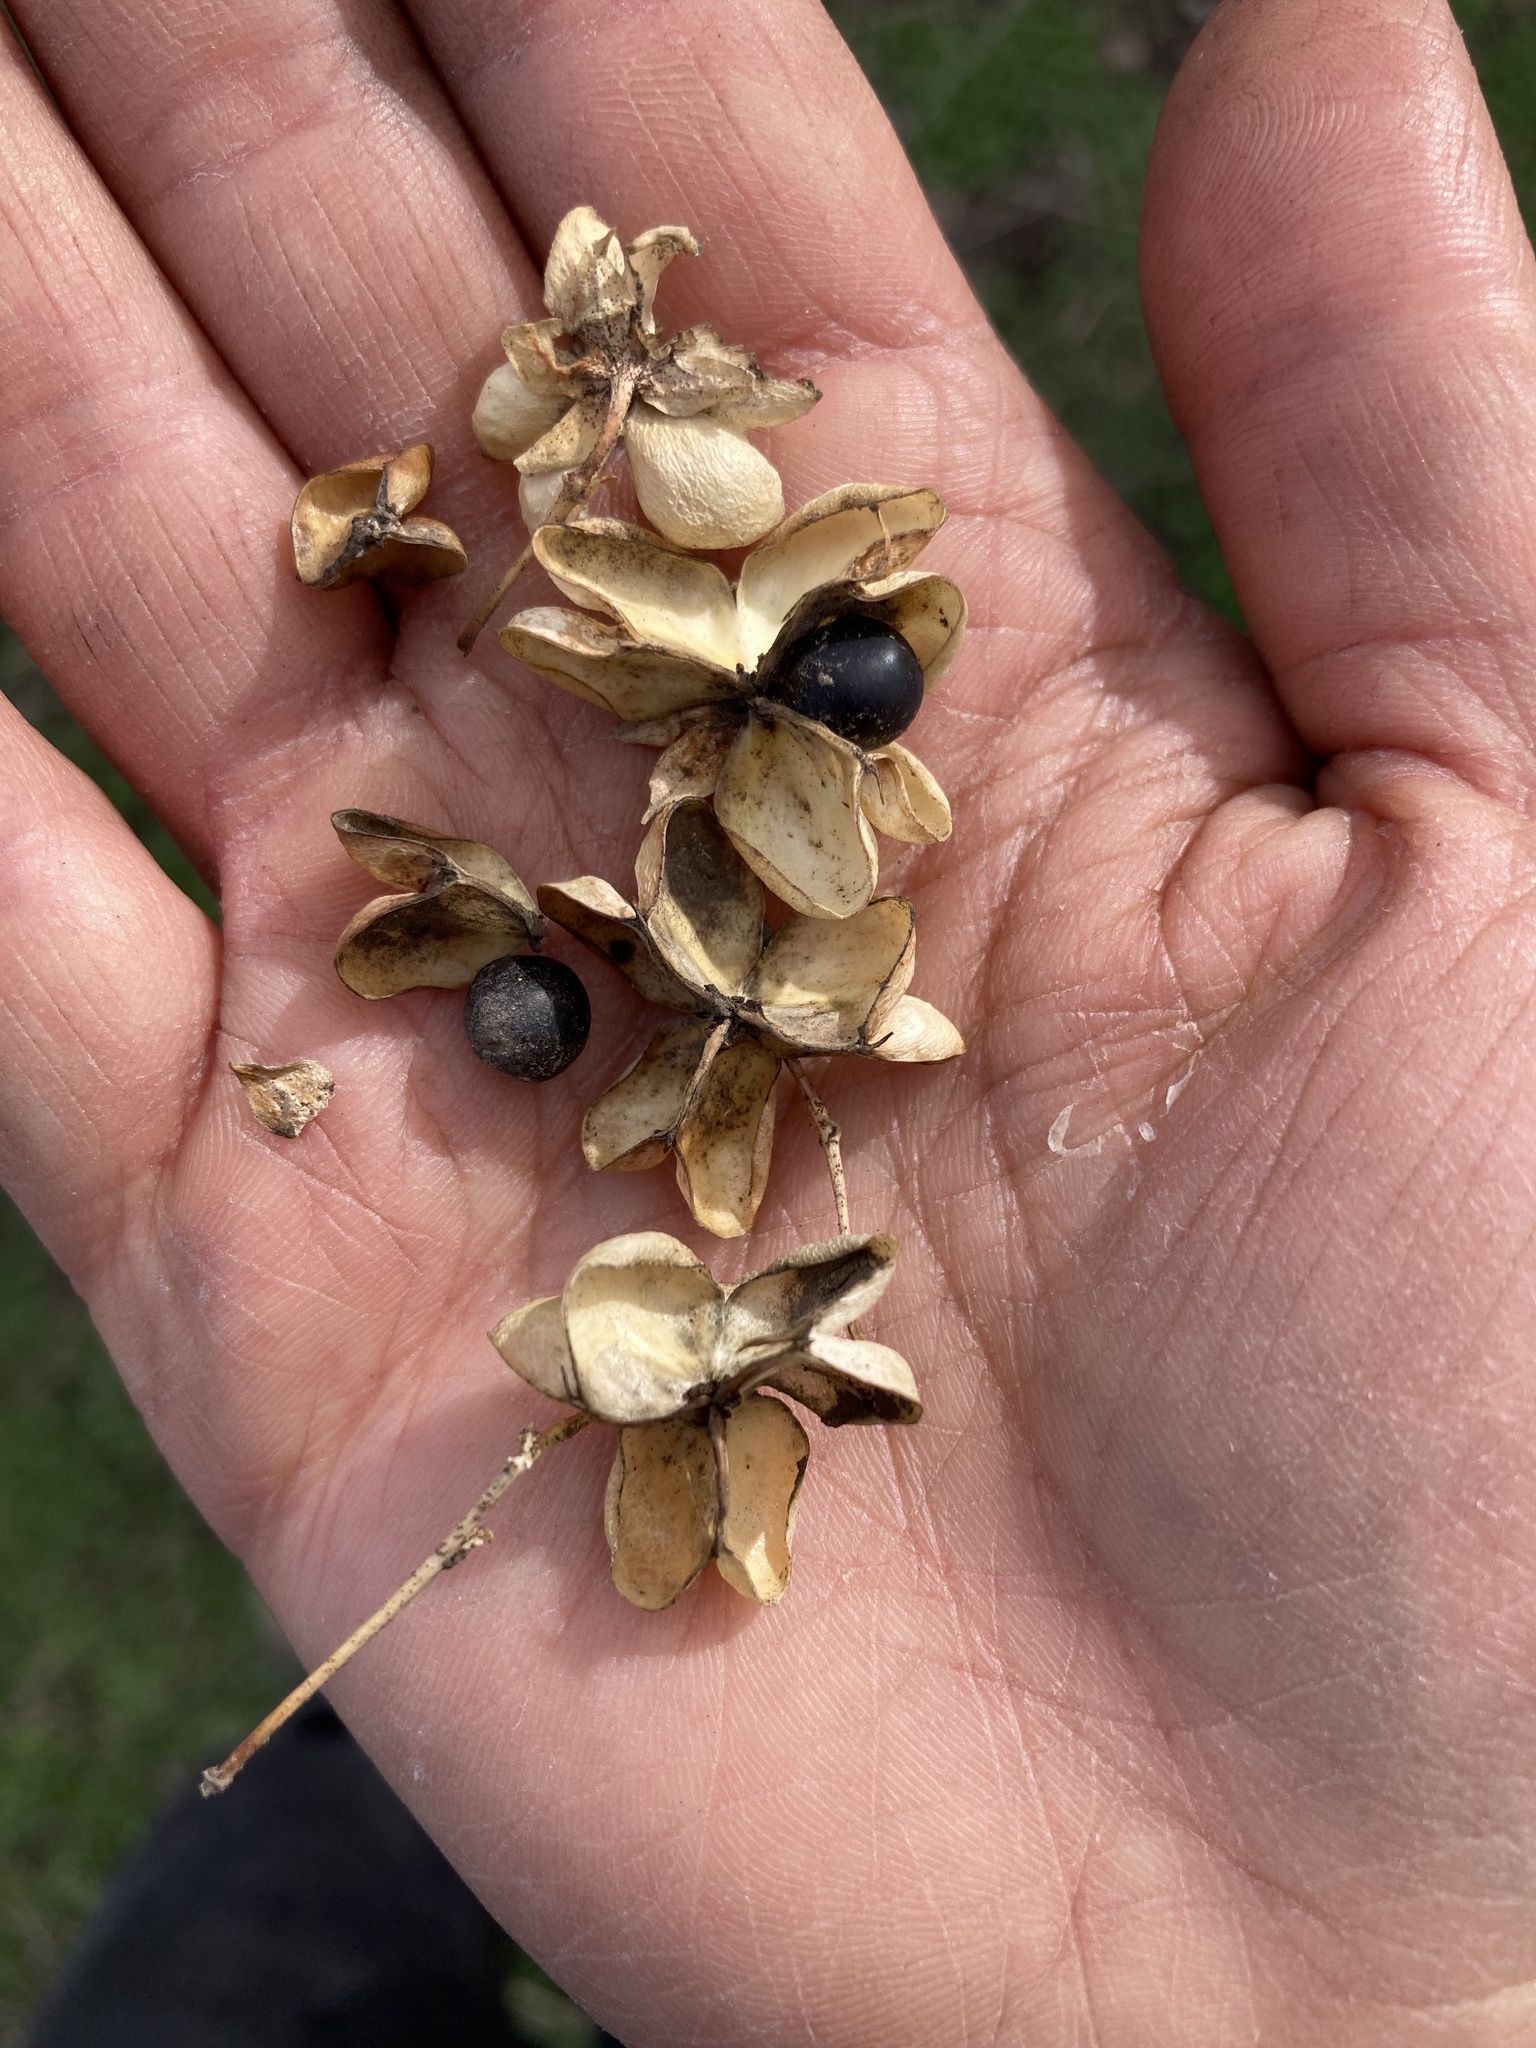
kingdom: Plantae
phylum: Tracheophyta
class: Magnoliopsida
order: Sapindales
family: Sapindaceae
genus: Llagunoa
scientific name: Llagunoa glandulosa
